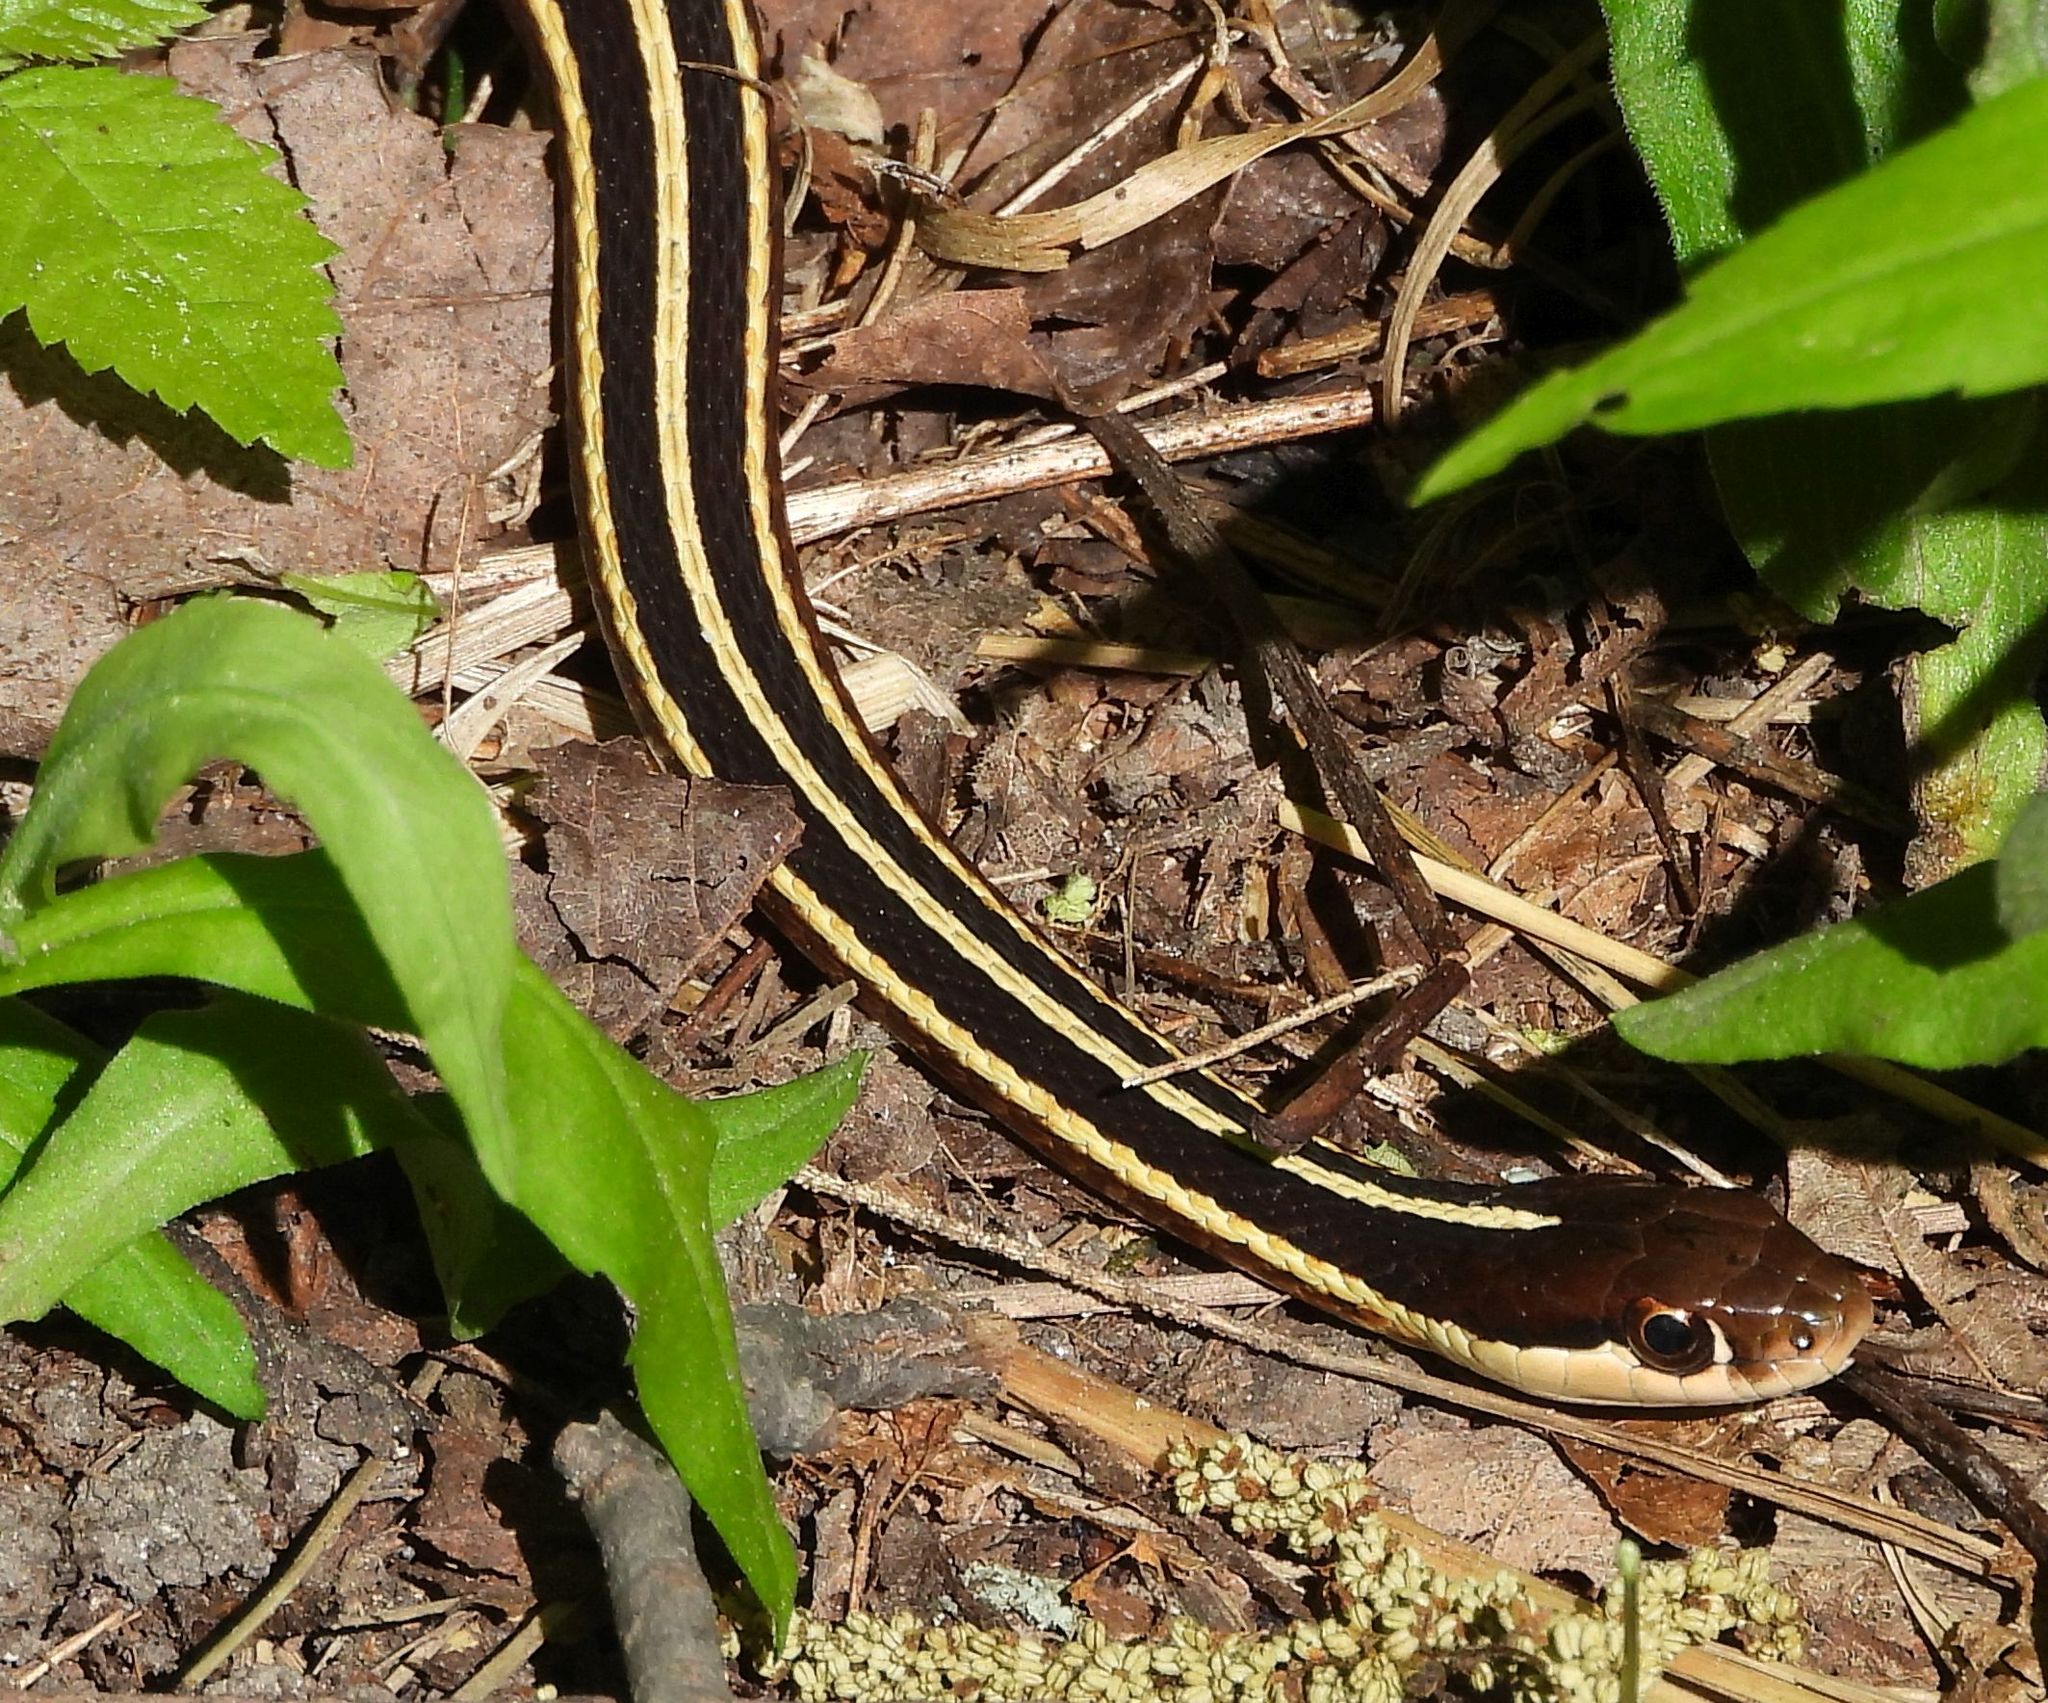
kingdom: Animalia
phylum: Chordata
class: Squamata
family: Colubridae
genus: Thamnophis
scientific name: Thamnophis saurita
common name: Eastern ribbonsnake
